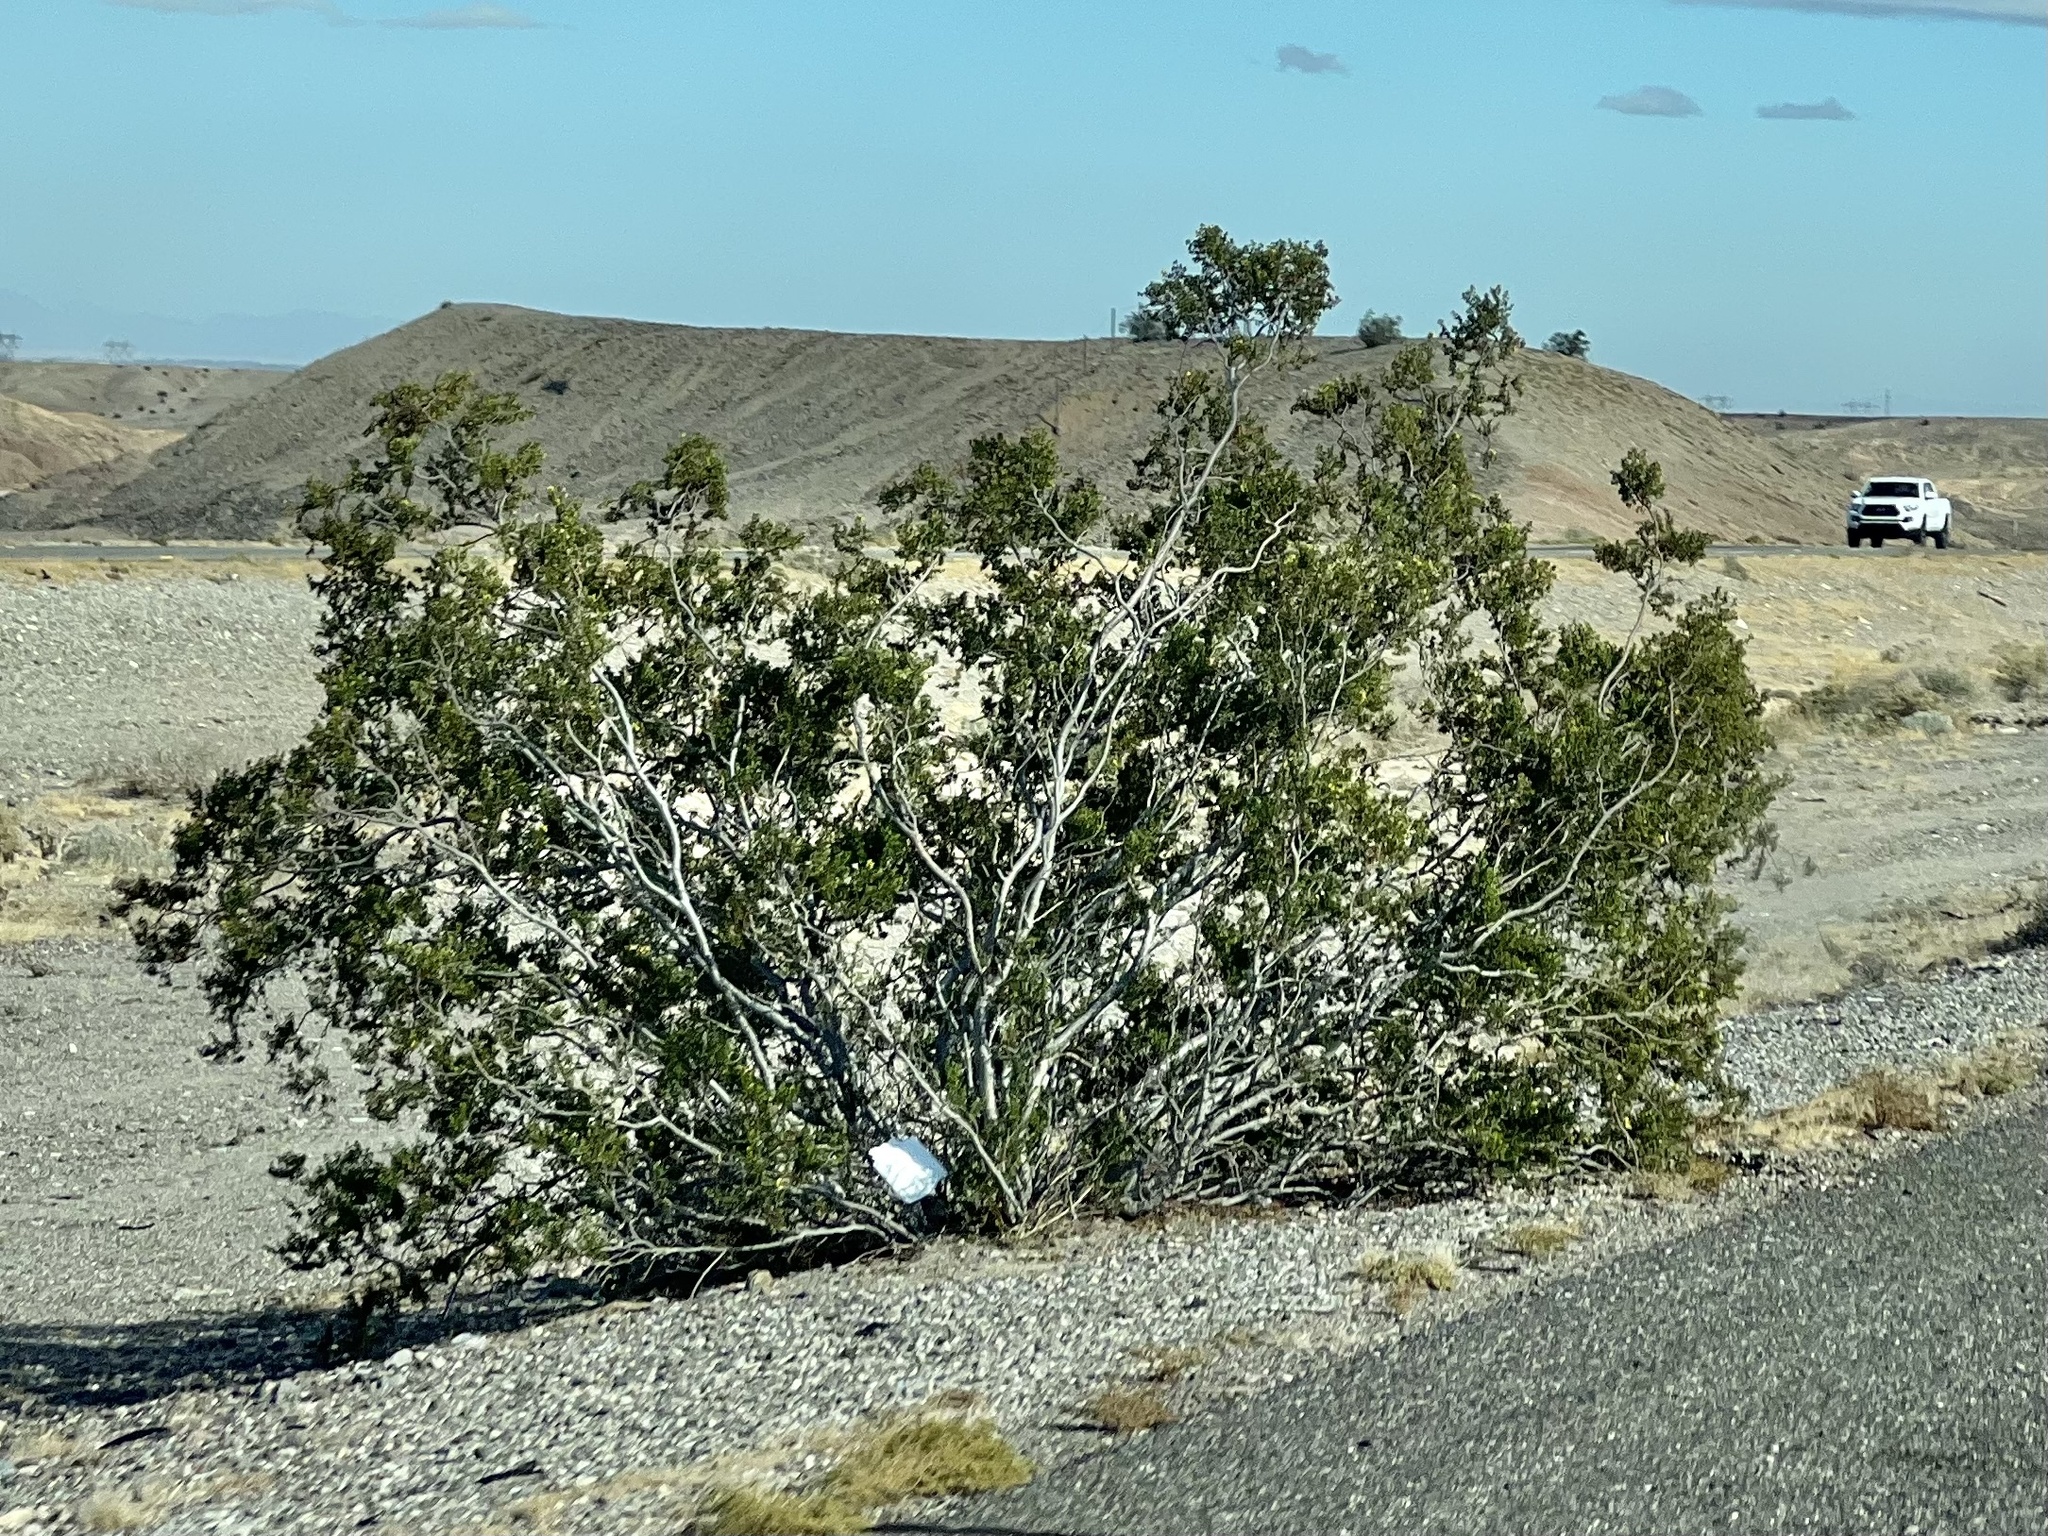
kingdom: Plantae
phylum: Tracheophyta
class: Magnoliopsida
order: Zygophyllales
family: Zygophyllaceae
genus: Larrea
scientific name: Larrea tridentata
